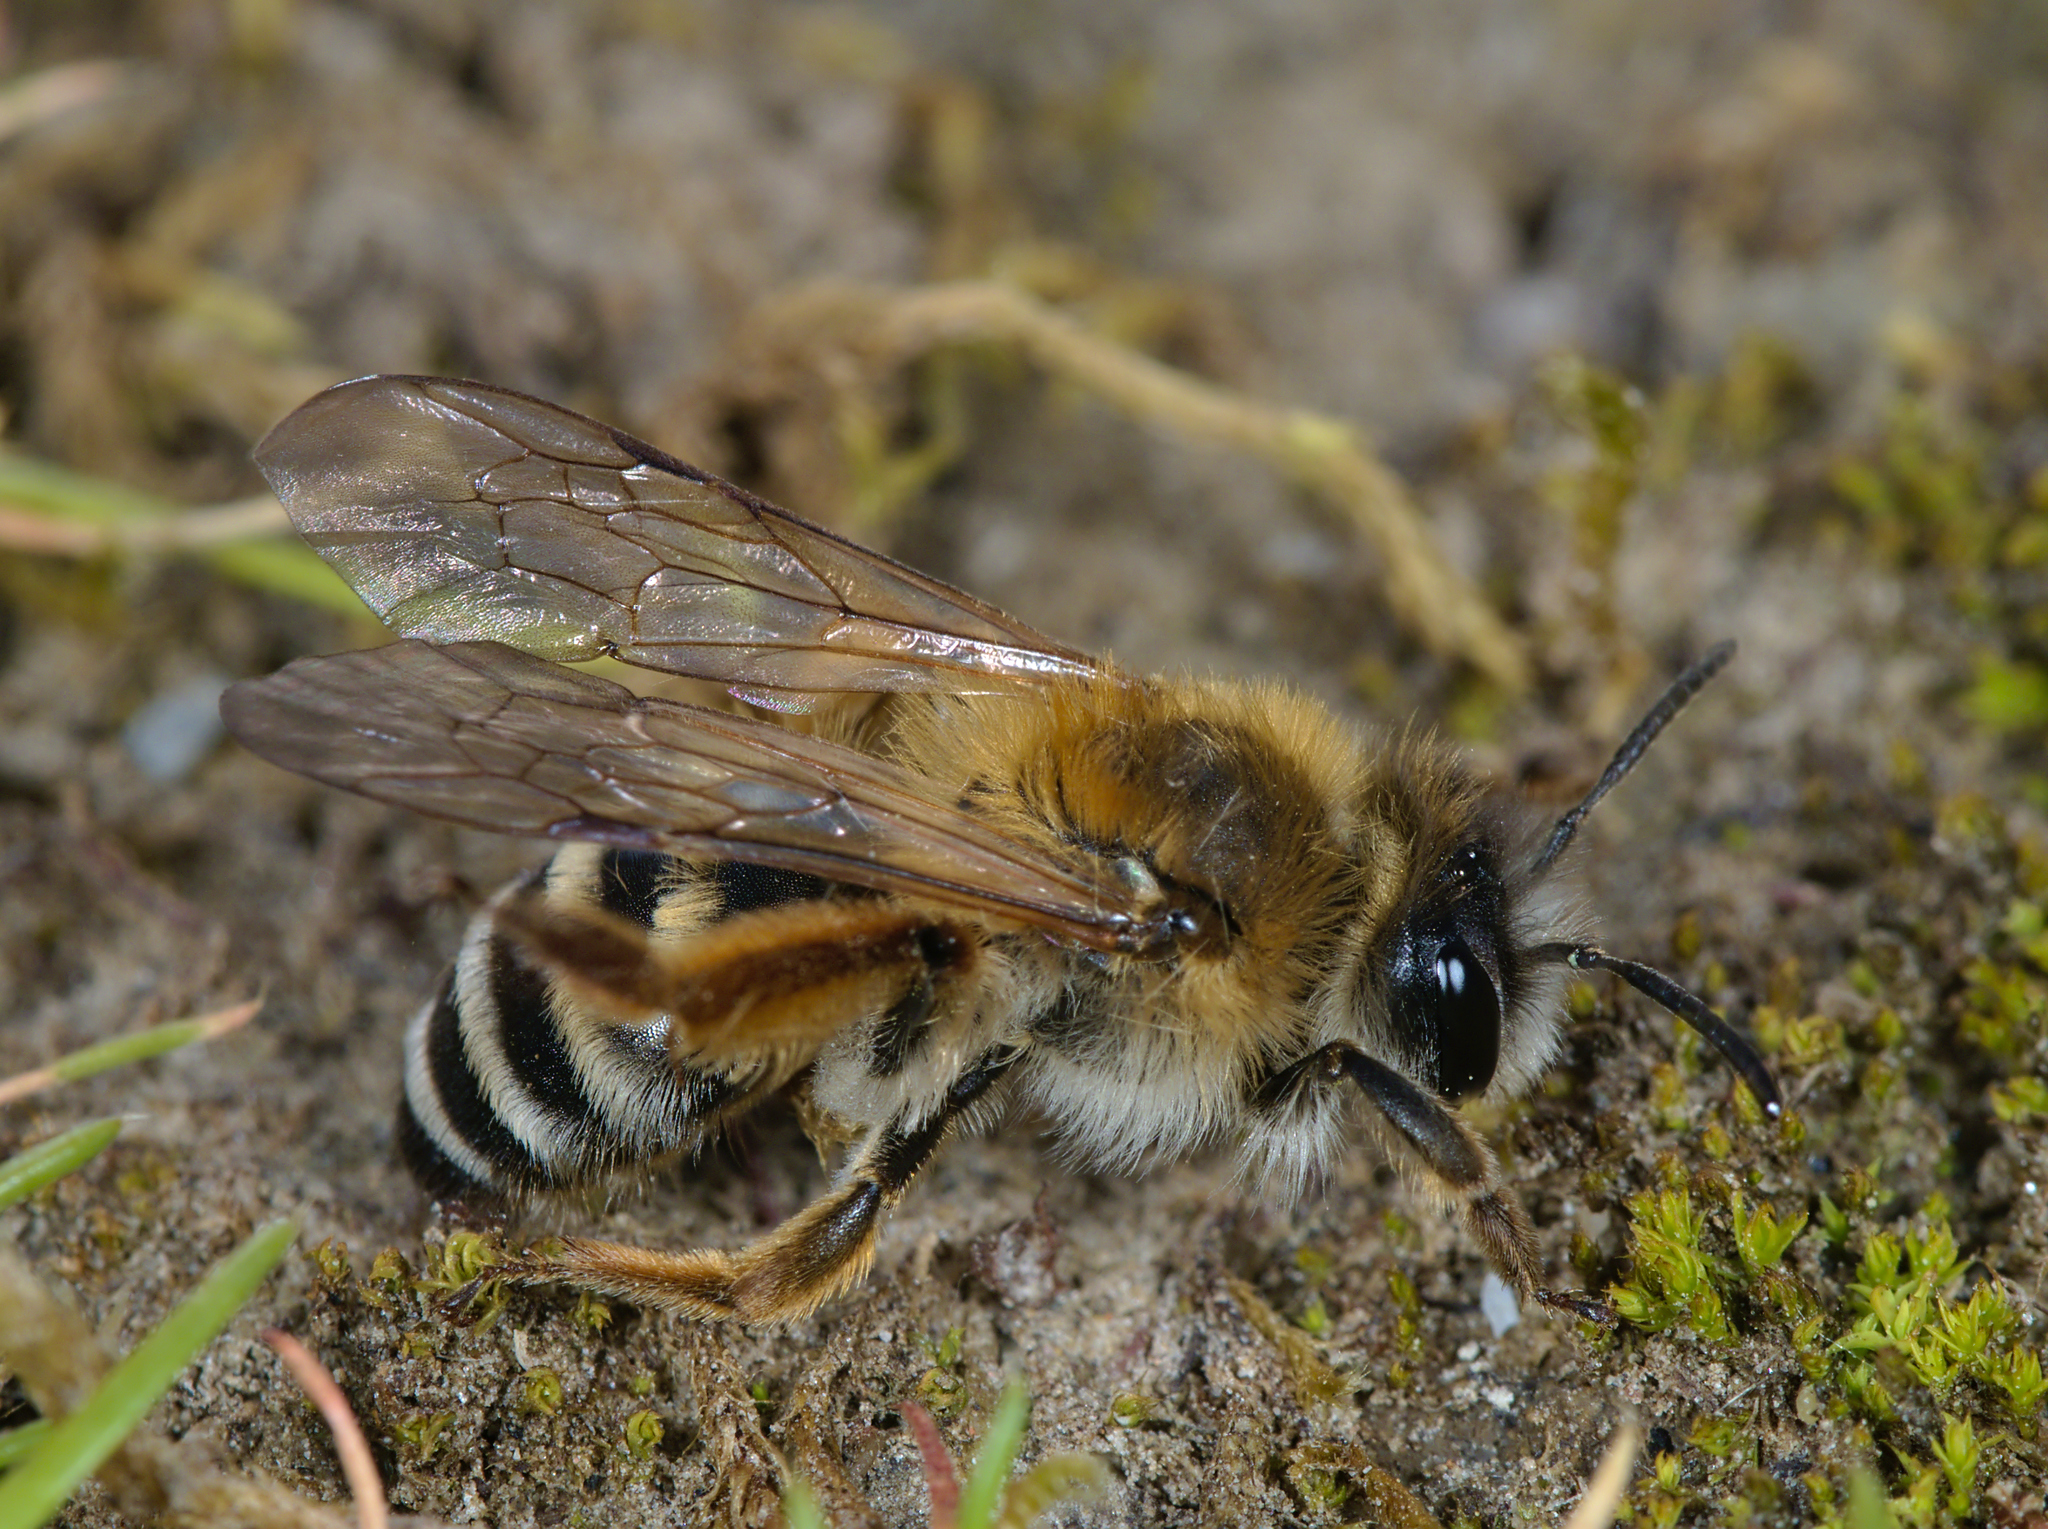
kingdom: Animalia
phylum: Arthropoda
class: Insecta
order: Hymenoptera
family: Andrenidae
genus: Andrena
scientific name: Andrena gravida
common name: White-bellied mining bee
